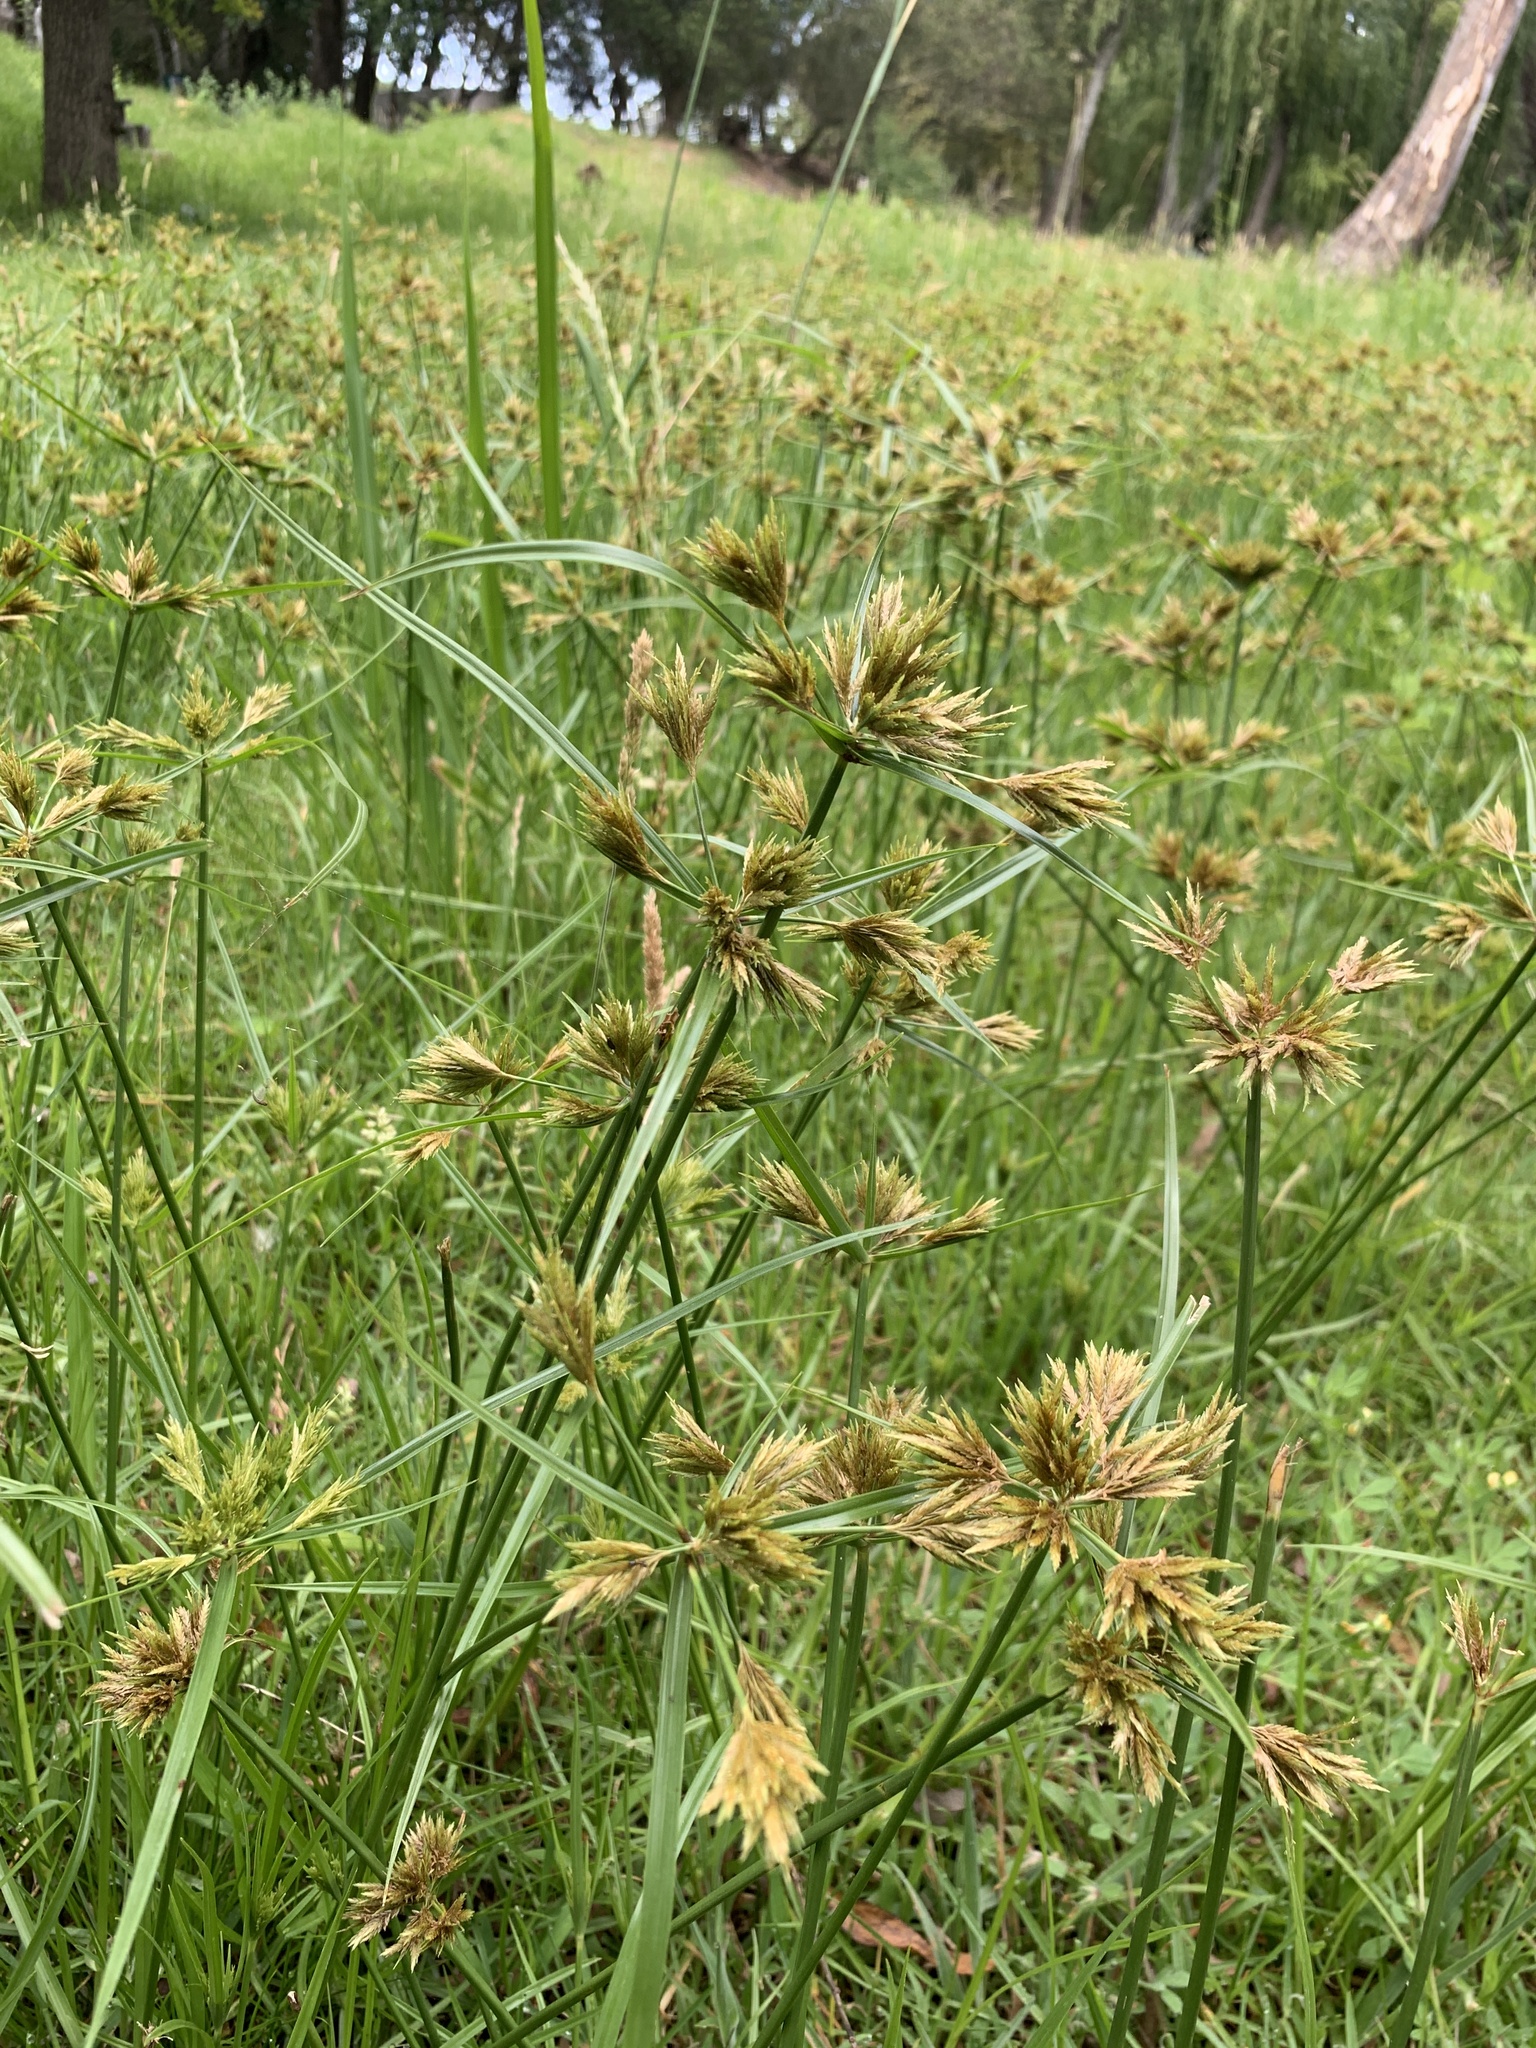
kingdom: Plantae
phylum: Tracheophyta
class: Liliopsida
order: Poales
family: Cyperaceae
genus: Cyperus
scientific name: Cyperus polystachyos
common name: Bunchy flat sedge
